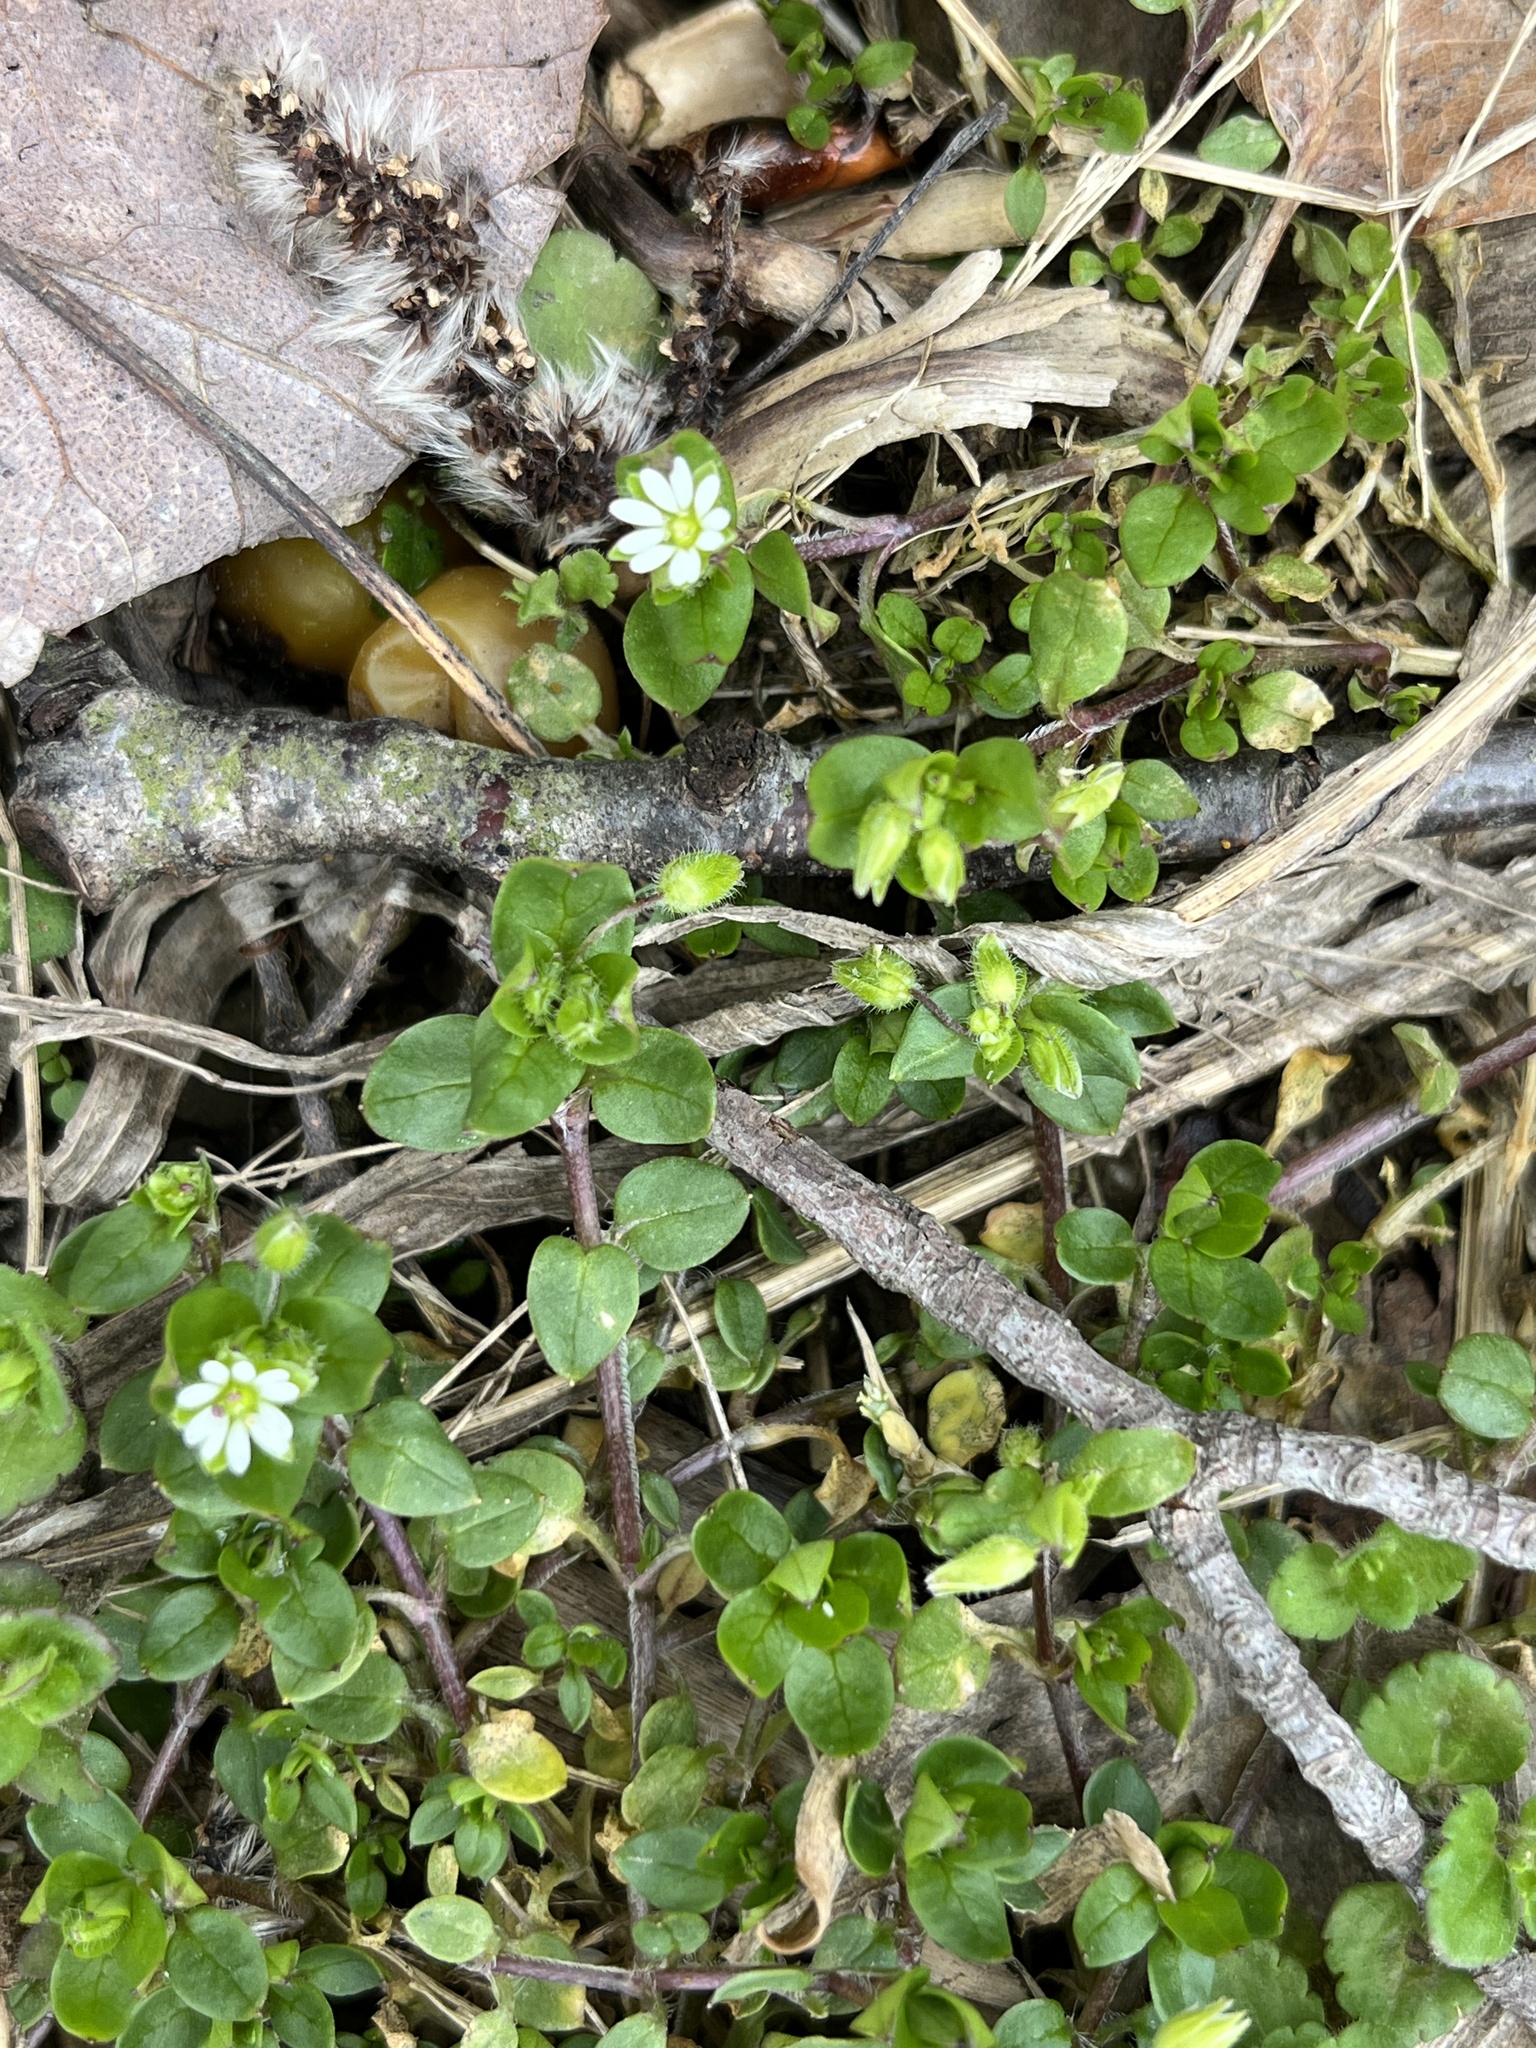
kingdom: Plantae
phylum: Tracheophyta
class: Magnoliopsida
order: Caryophyllales
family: Caryophyllaceae
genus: Stellaria
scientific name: Stellaria media
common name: Common chickweed
